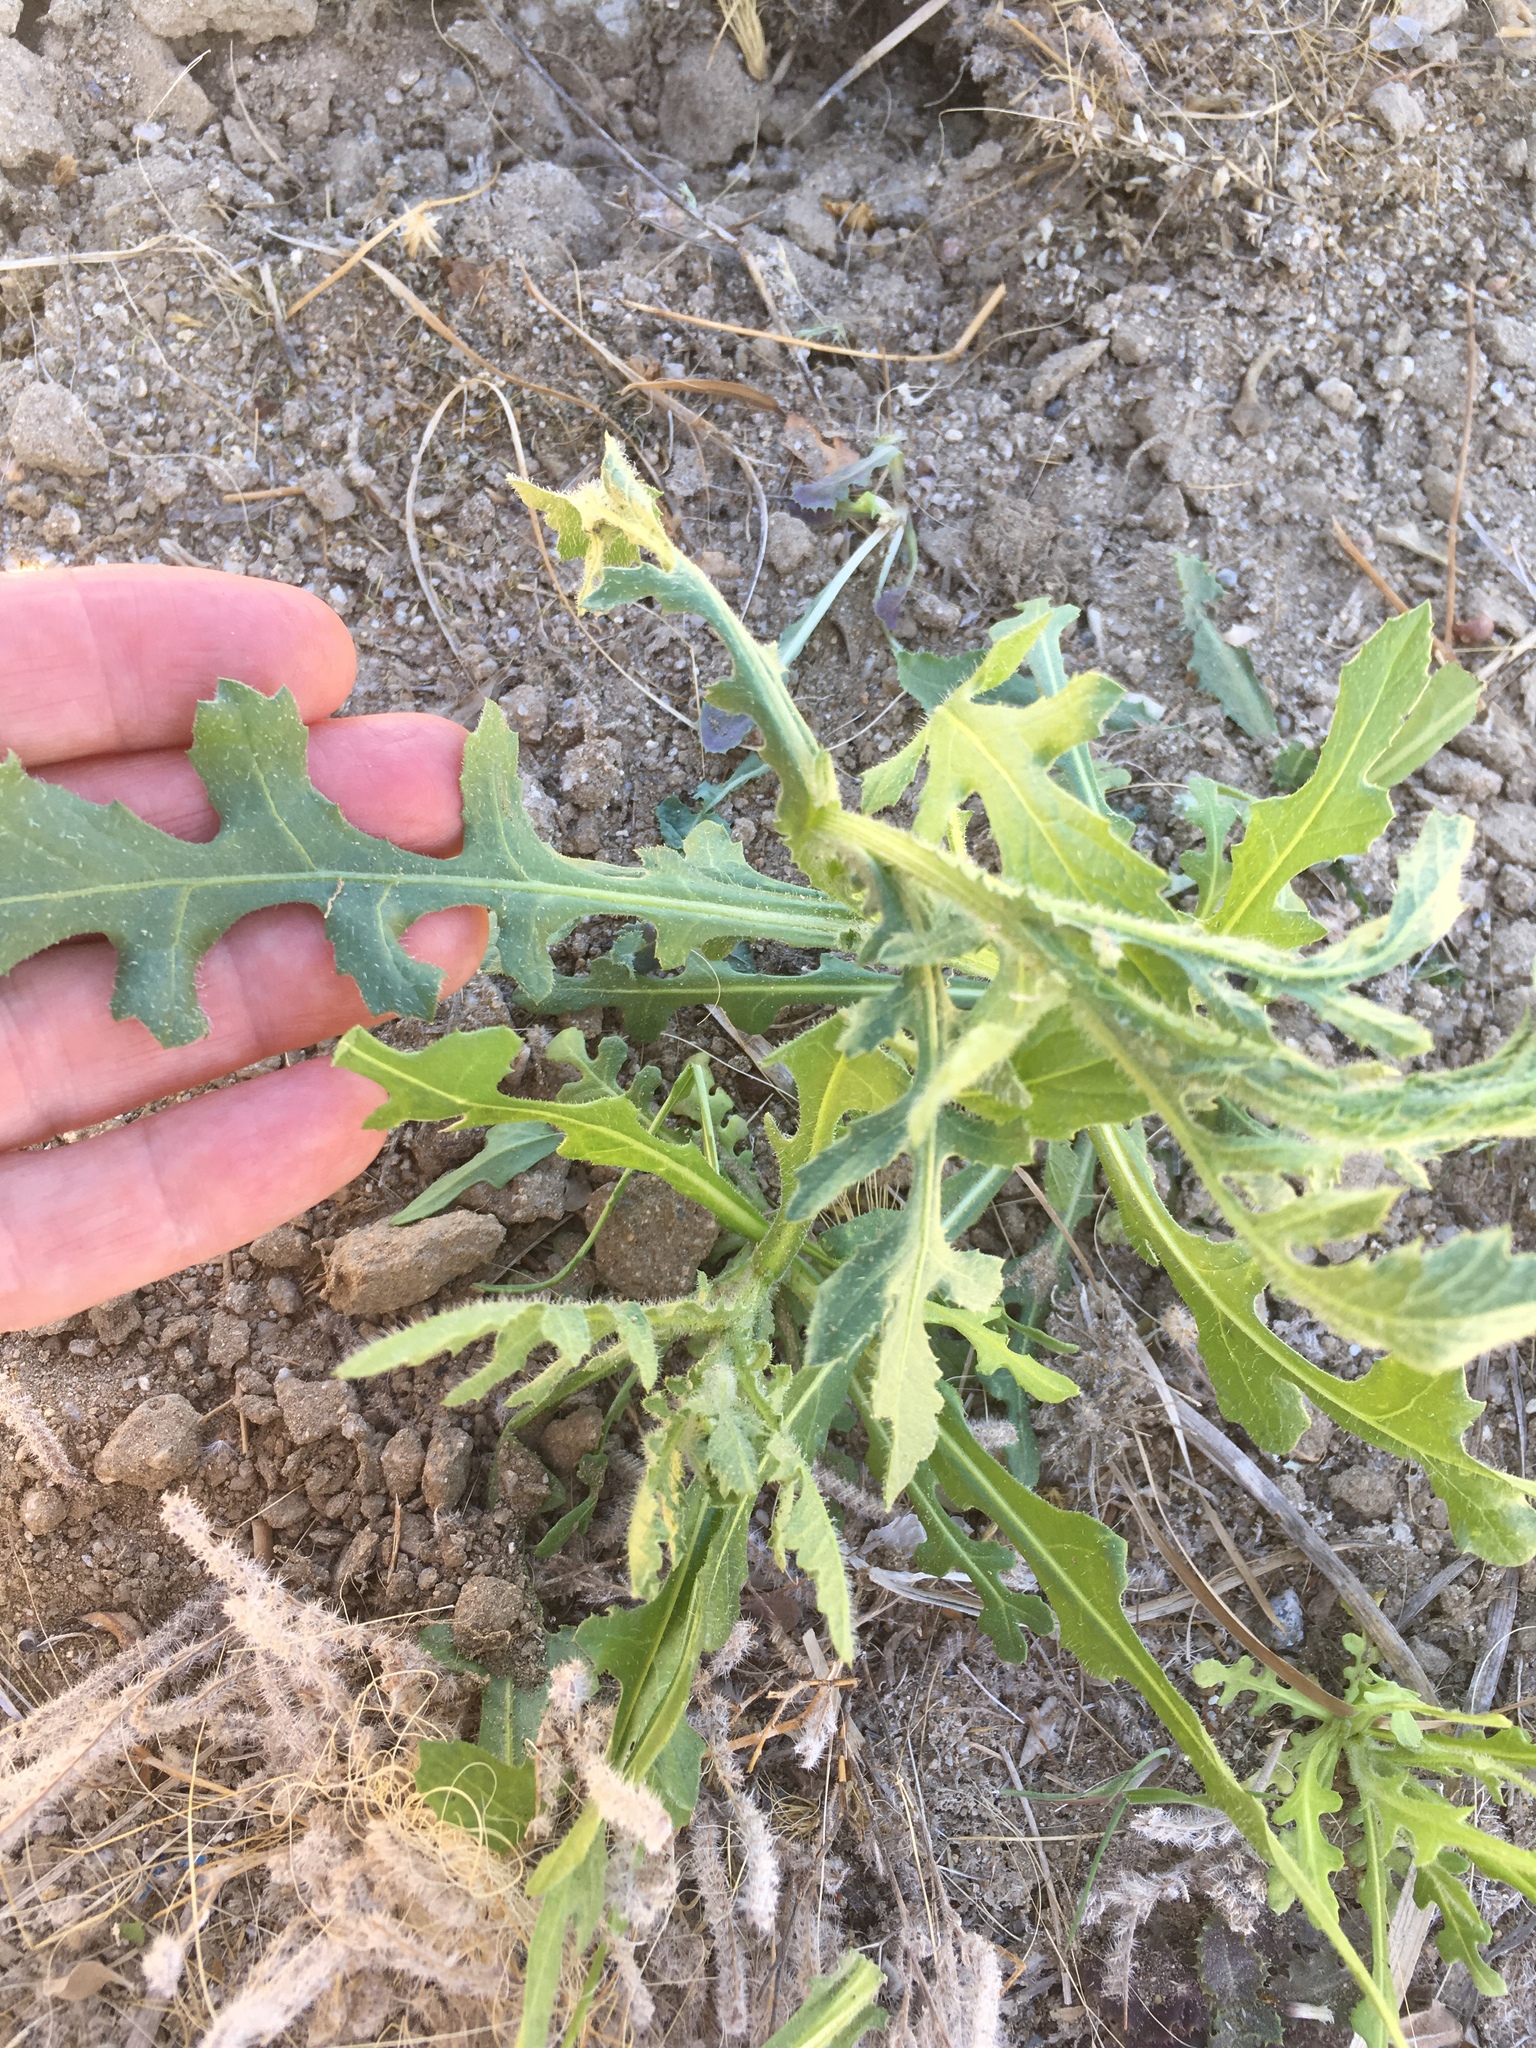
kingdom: Plantae
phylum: Tracheophyta
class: Magnoliopsida
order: Asterales
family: Asteraceae
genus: Volutaria
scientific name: Volutaria tubuliflora
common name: Desert knapweed
